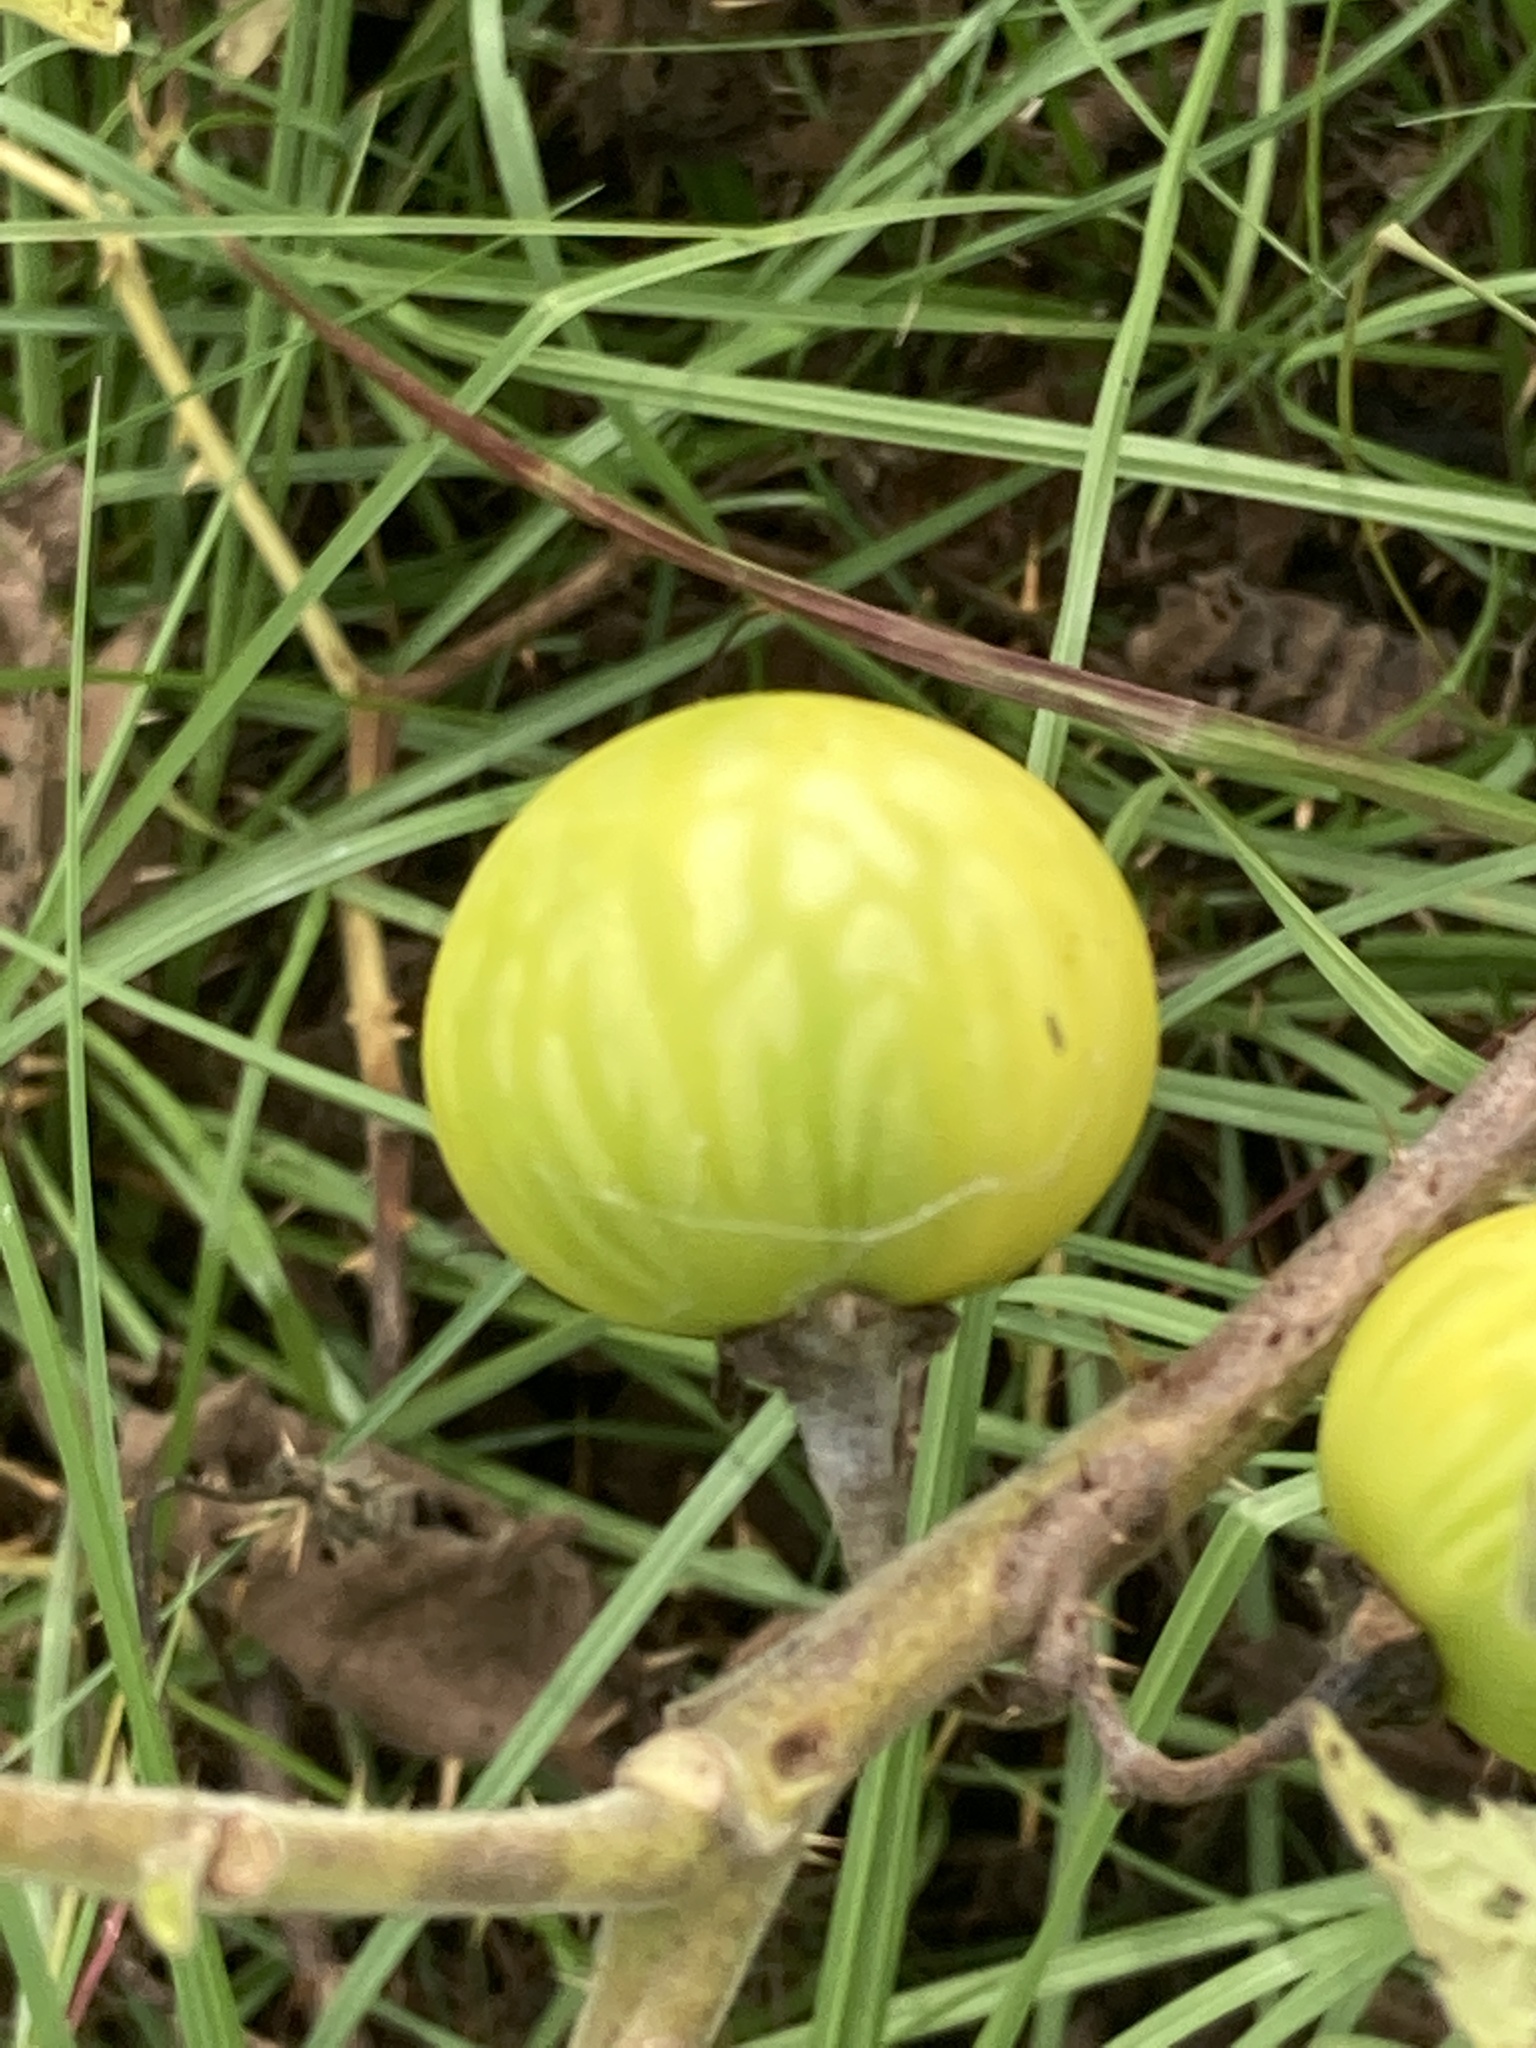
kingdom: Plantae
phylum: Tracheophyta
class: Magnoliopsida
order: Solanales
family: Solanaceae
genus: Solanum
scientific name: Solanum viarum
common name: Tropical soda apple
